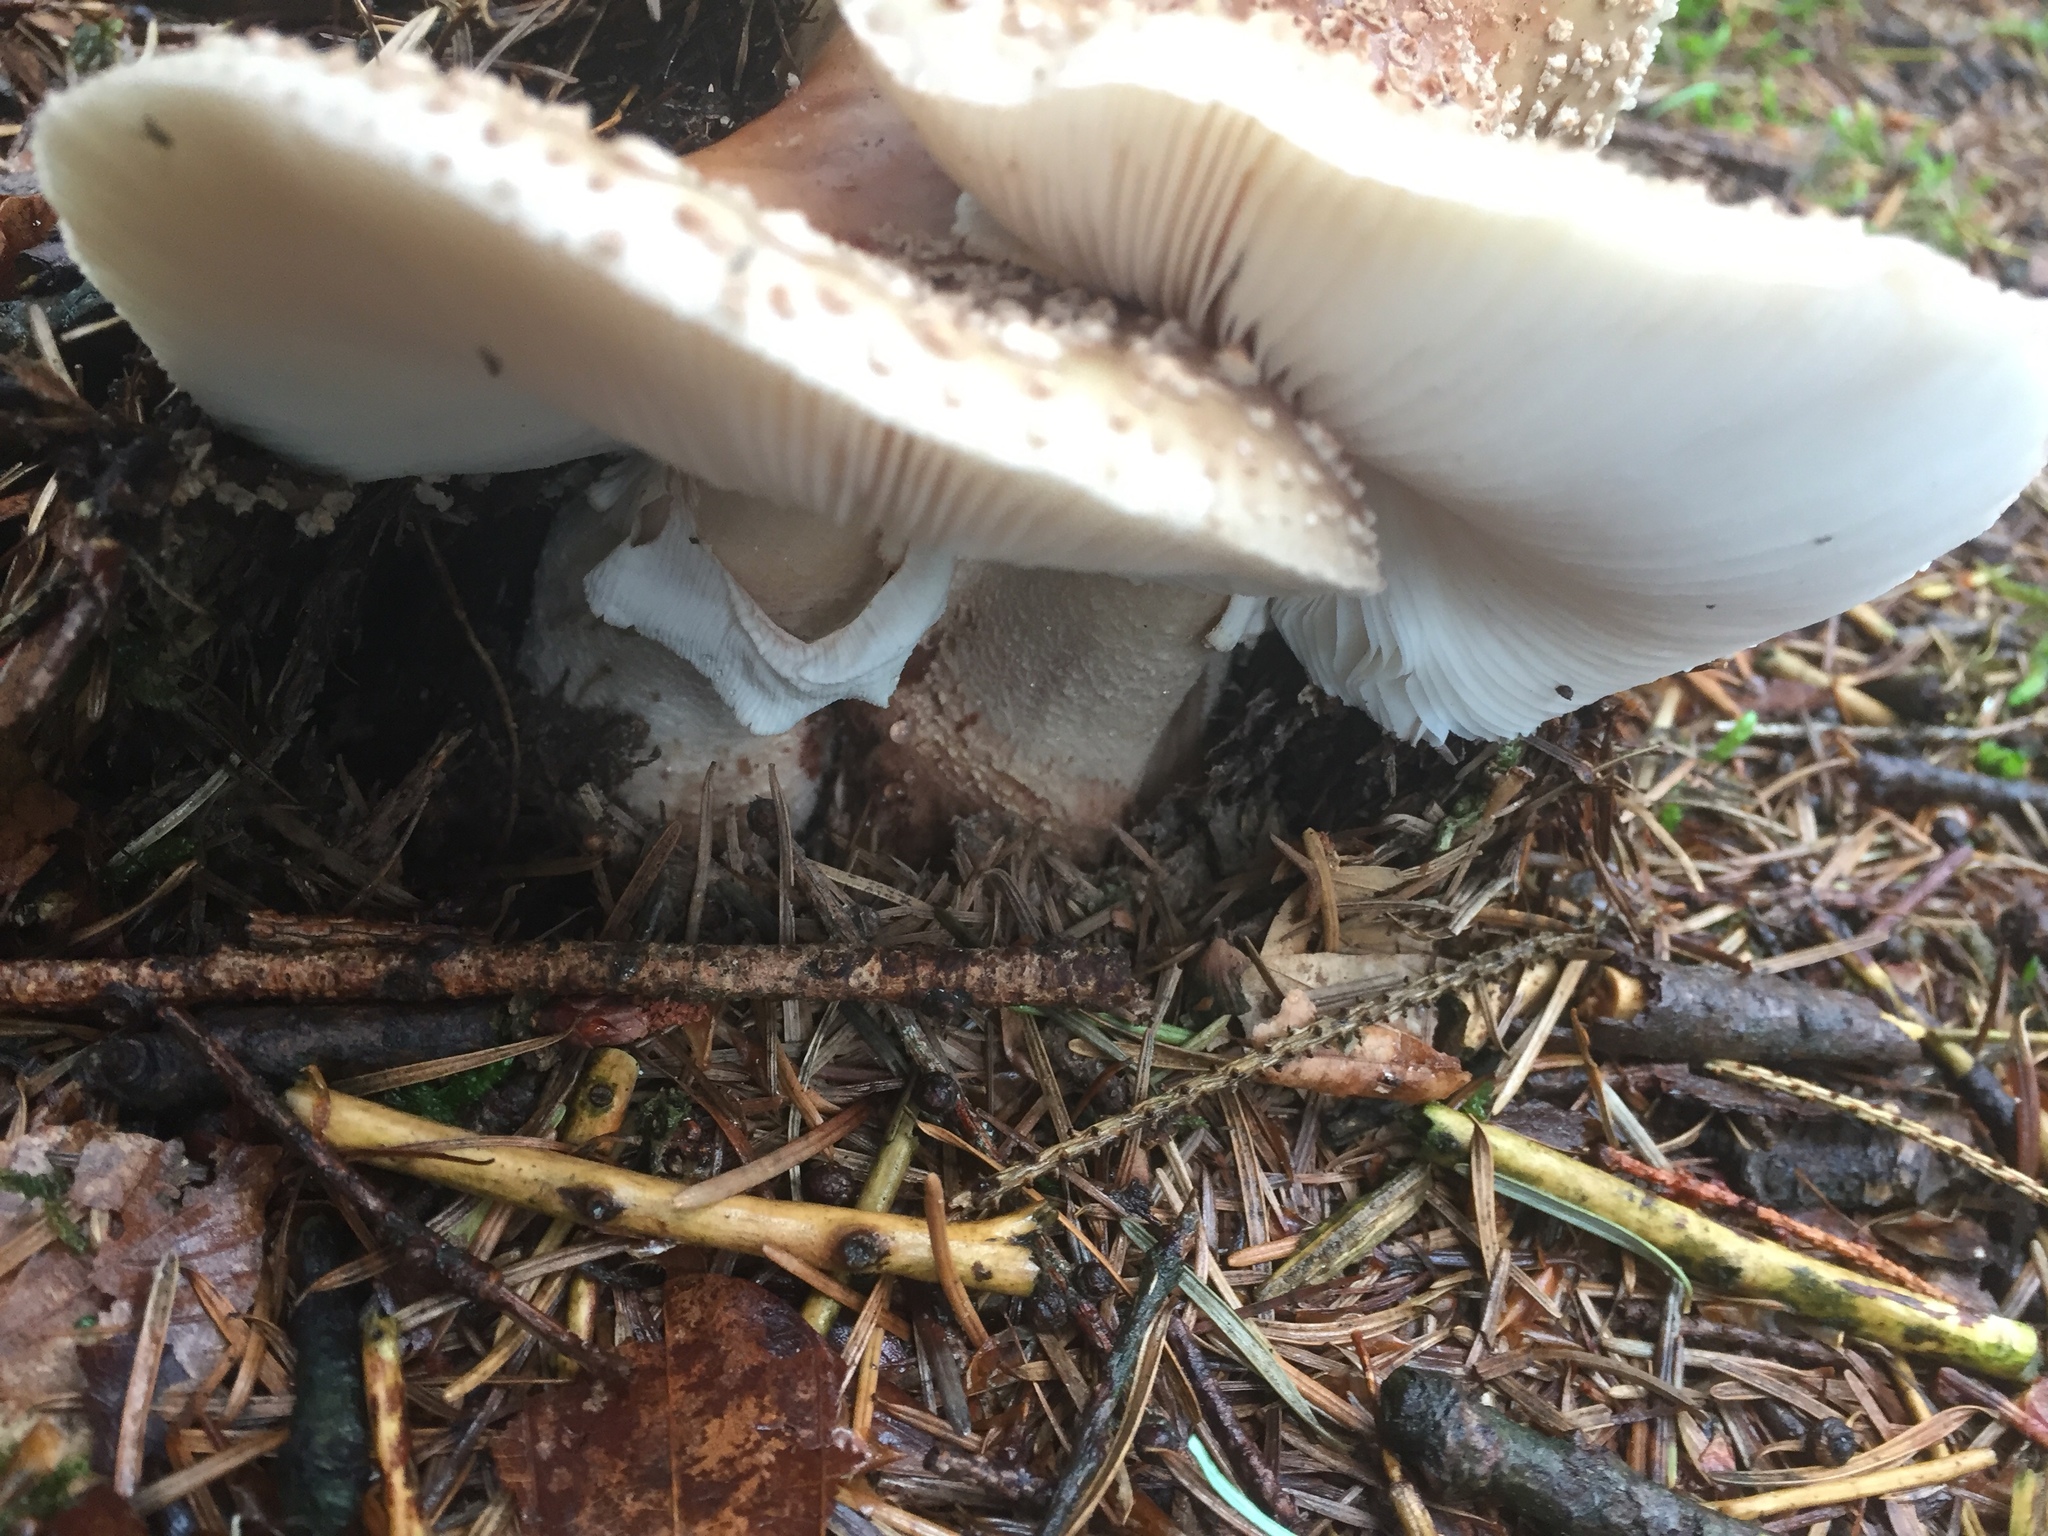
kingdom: Fungi
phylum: Basidiomycota
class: Agaricomycetes
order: Agaricales
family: Amanitaceae
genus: Amanita
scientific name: Amanita rubescens
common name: Blusher
